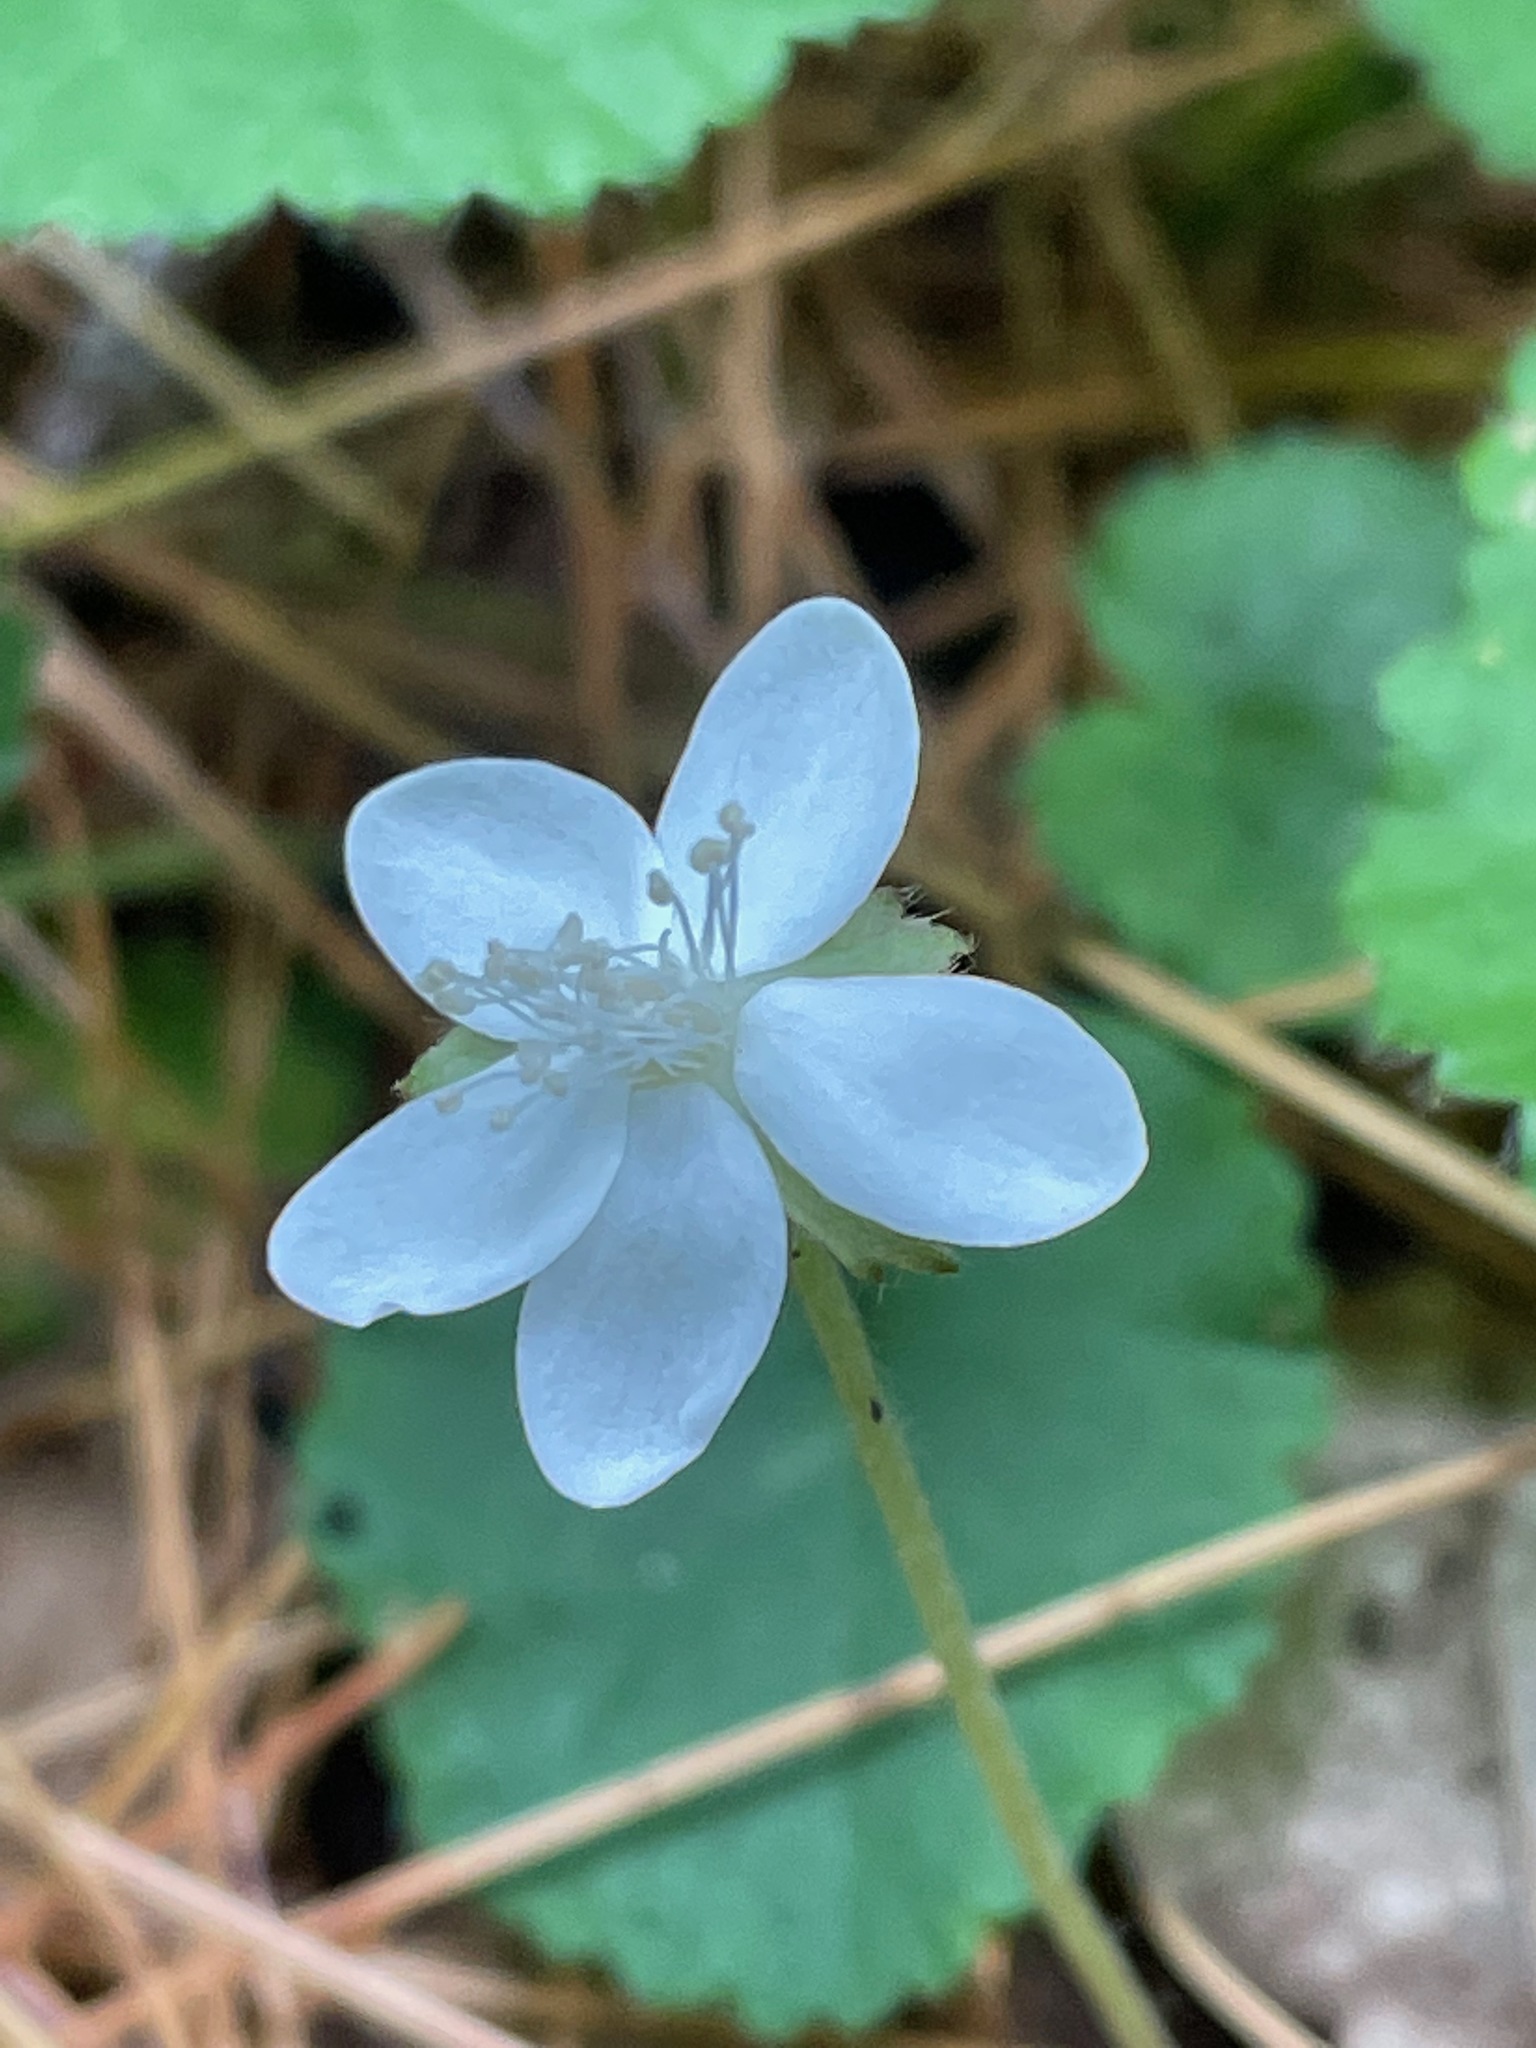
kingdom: Plantae
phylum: Tracheophyta
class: Magnoliopsida
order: Rosales
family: Rosaceae
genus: Dalibarda
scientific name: Dalibarda repens
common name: Dewdrop
